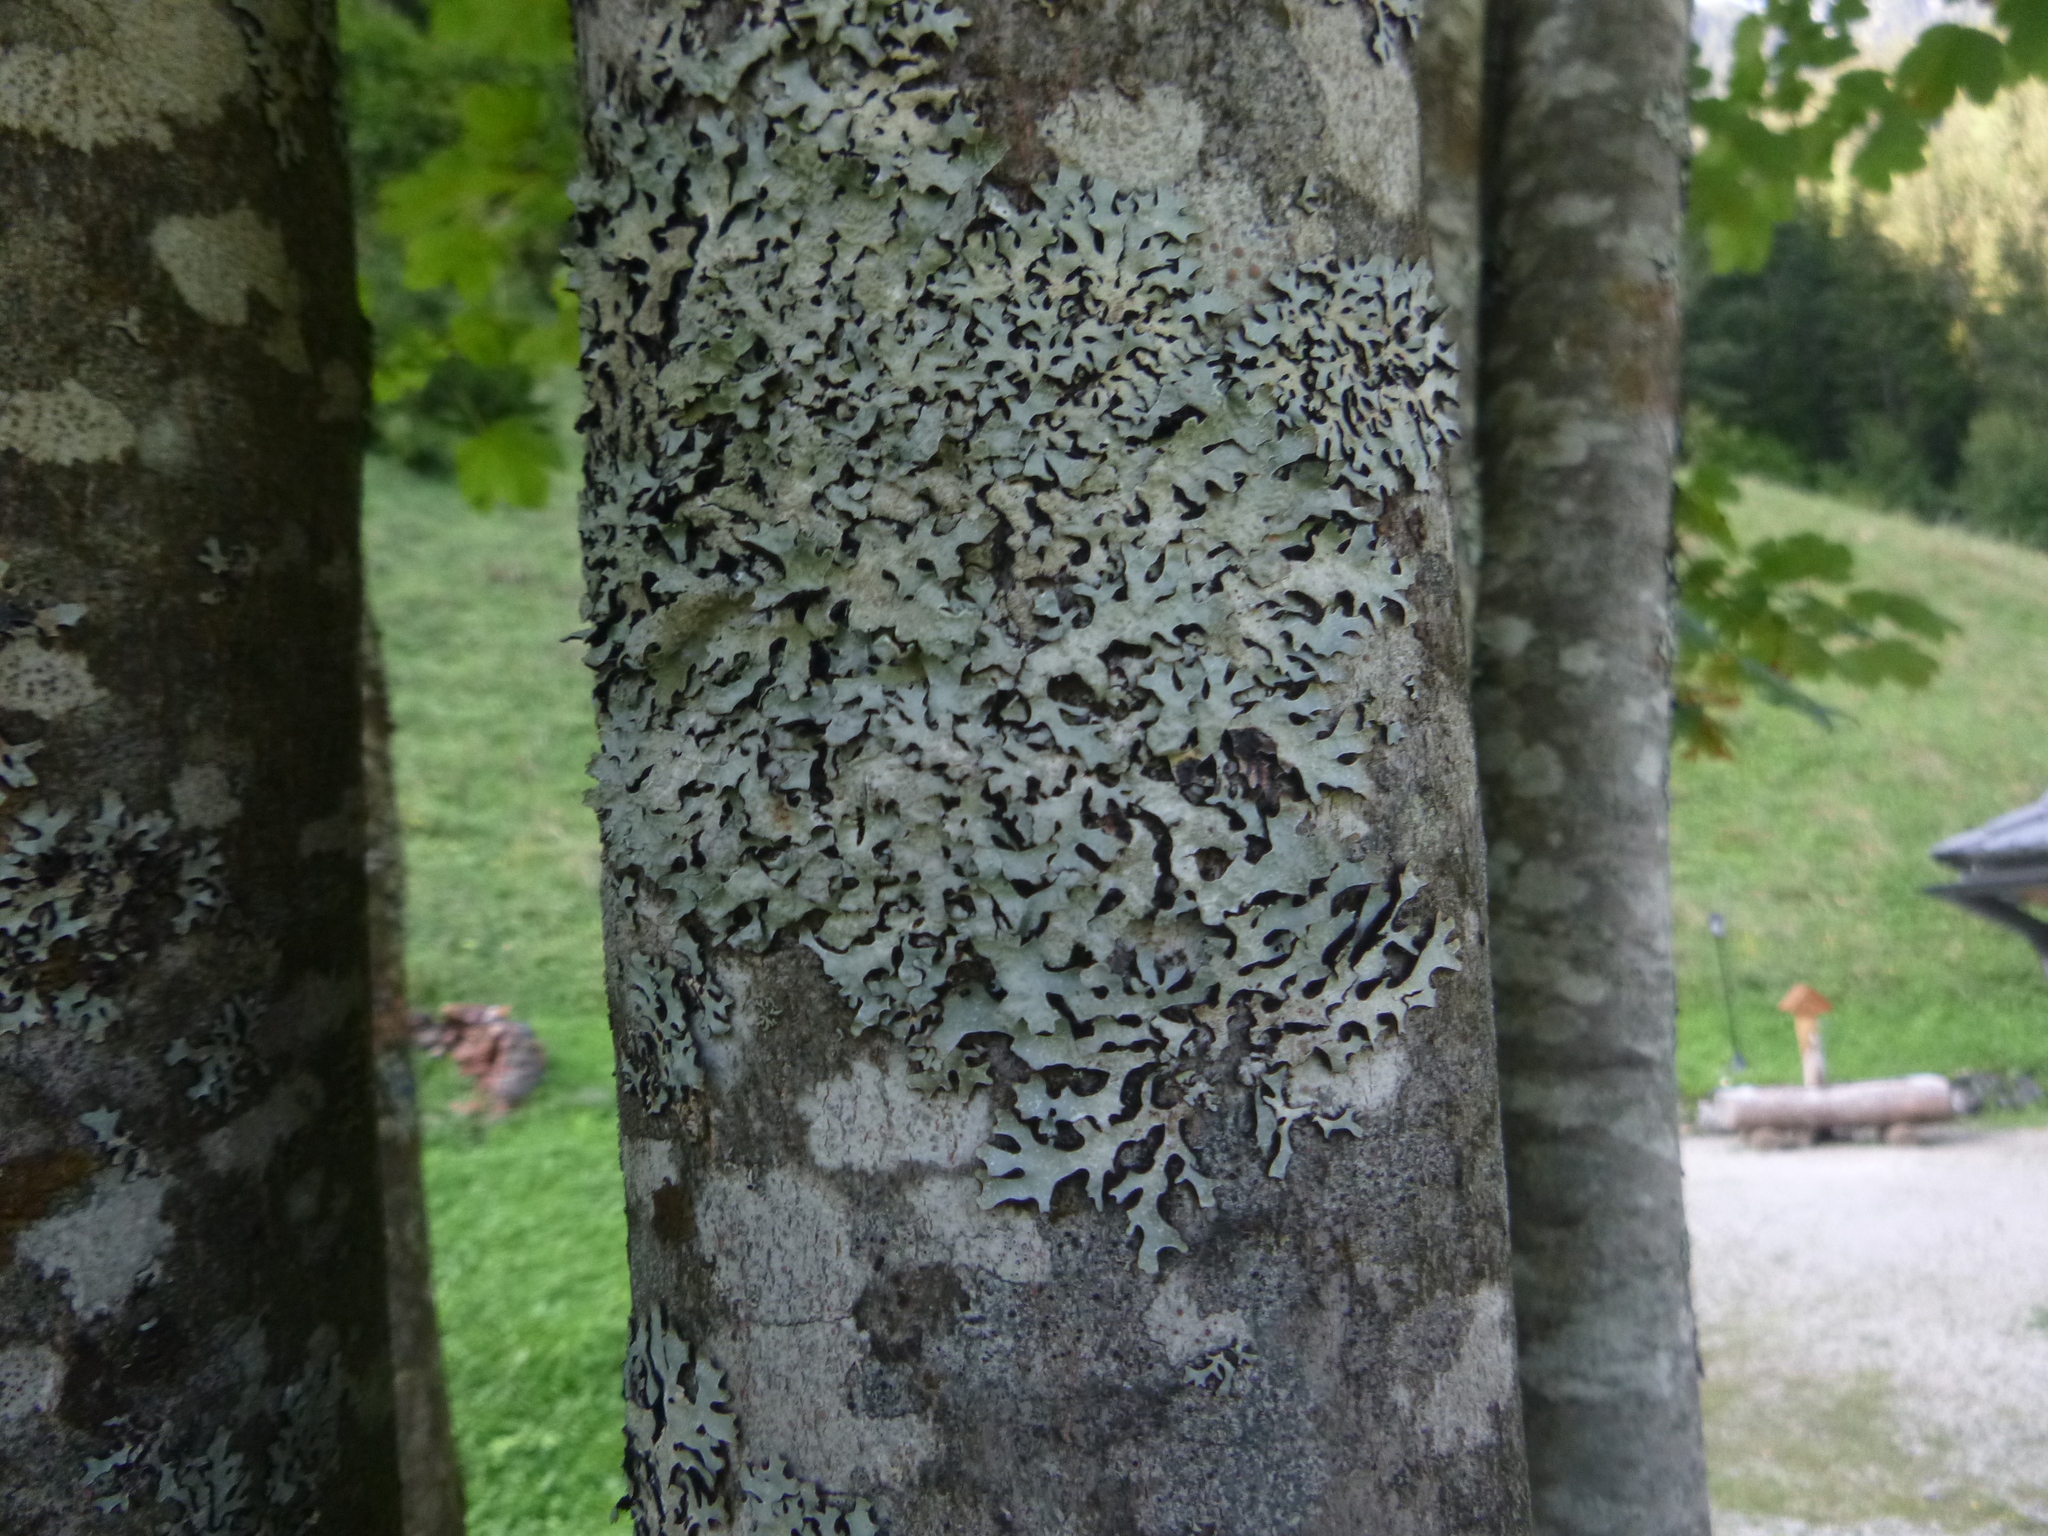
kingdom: Fungi
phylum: Ascomycota
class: Lecanoromycetes
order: Lecanorales
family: Parmeliaceae
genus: Parmelia
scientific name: Parmelia sulcata
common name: Netted shield lichen
